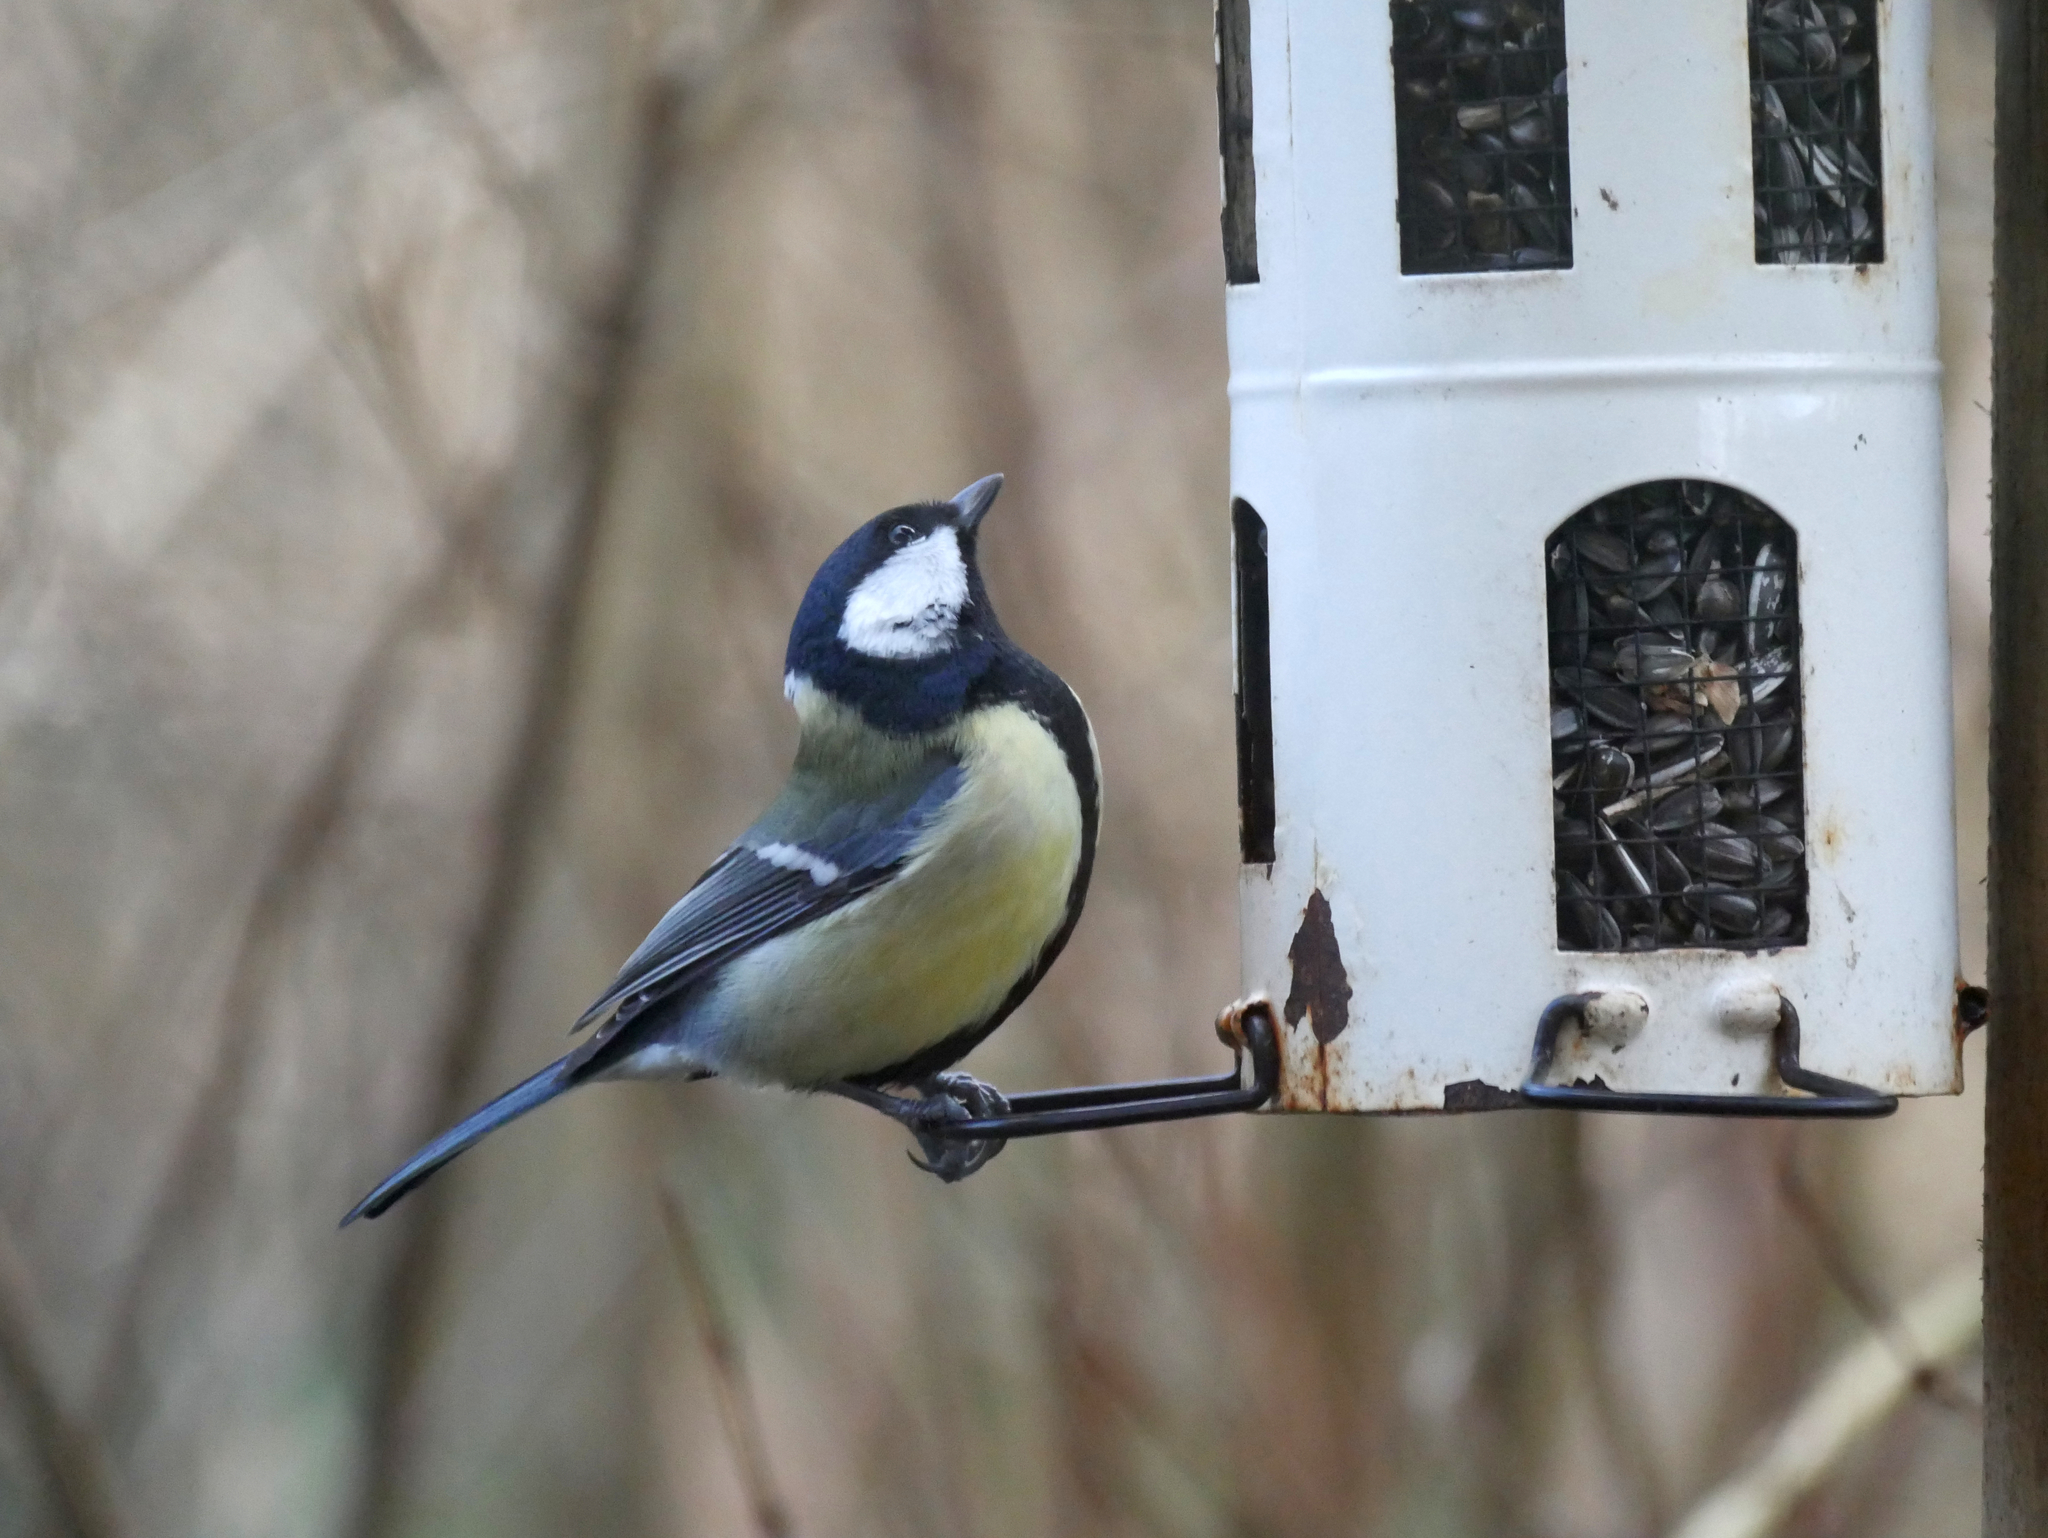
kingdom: Animalia
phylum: Chordata
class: Aves
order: Passeriformes
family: Paridae
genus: Parus
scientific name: Parus major
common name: Great tit
